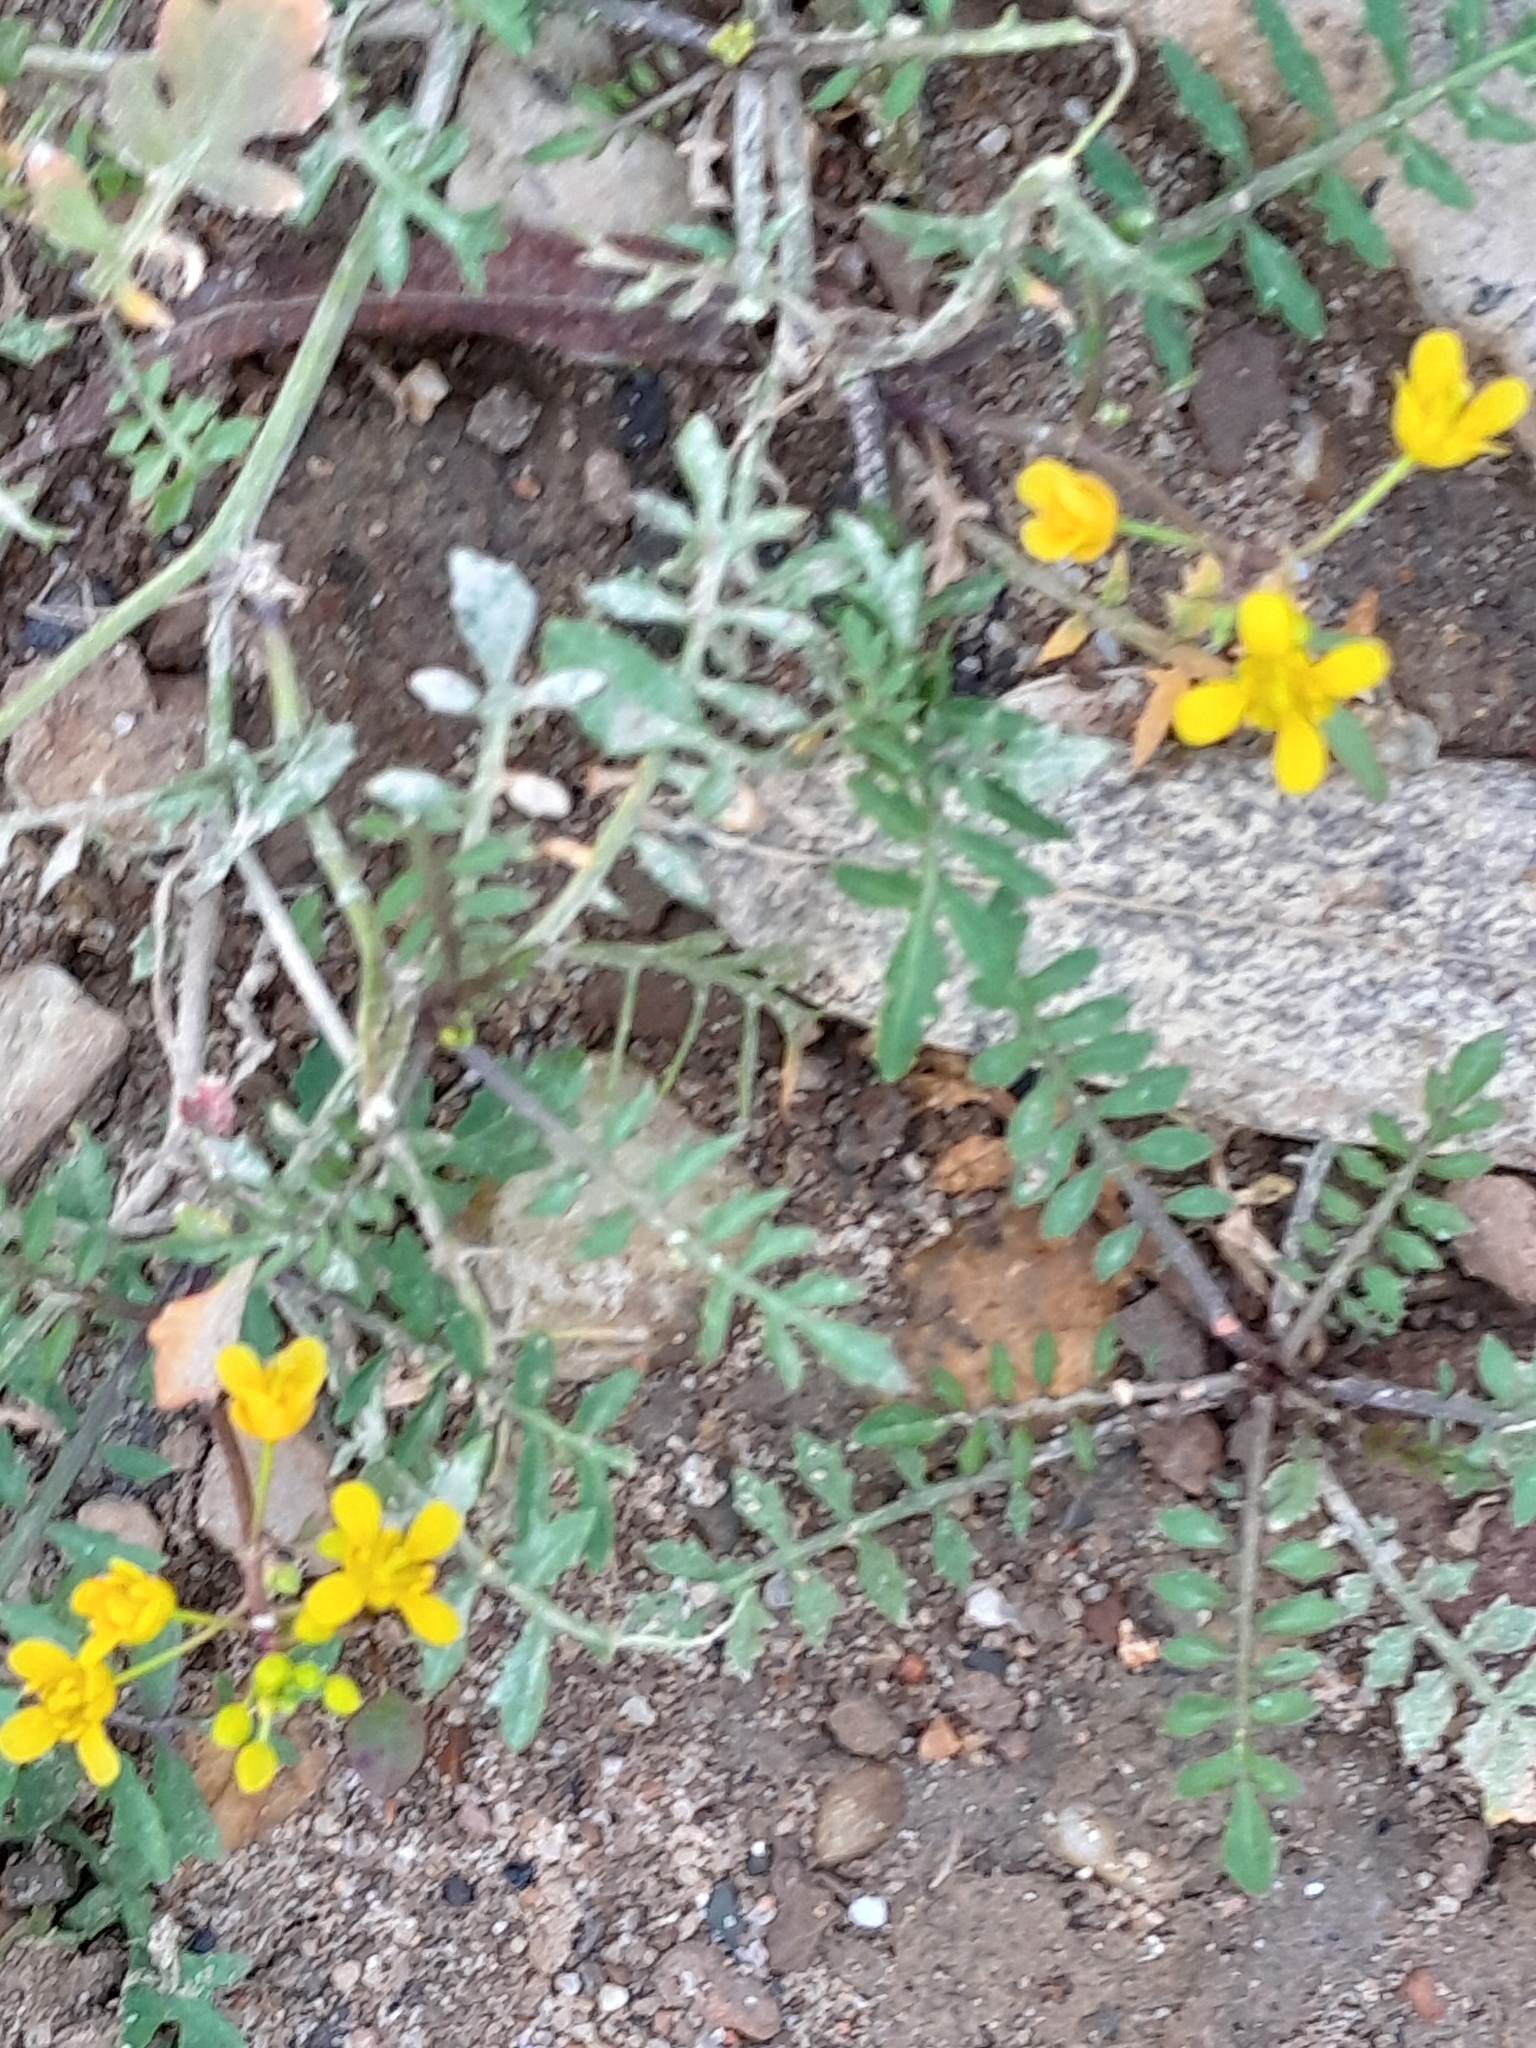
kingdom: Plantae
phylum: Tracheophyta
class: Magnoliopsida
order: Brassicales
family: Brassicaceae
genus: Rorippa
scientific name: Rorippa sylvestris
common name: Creeping yellowcress
